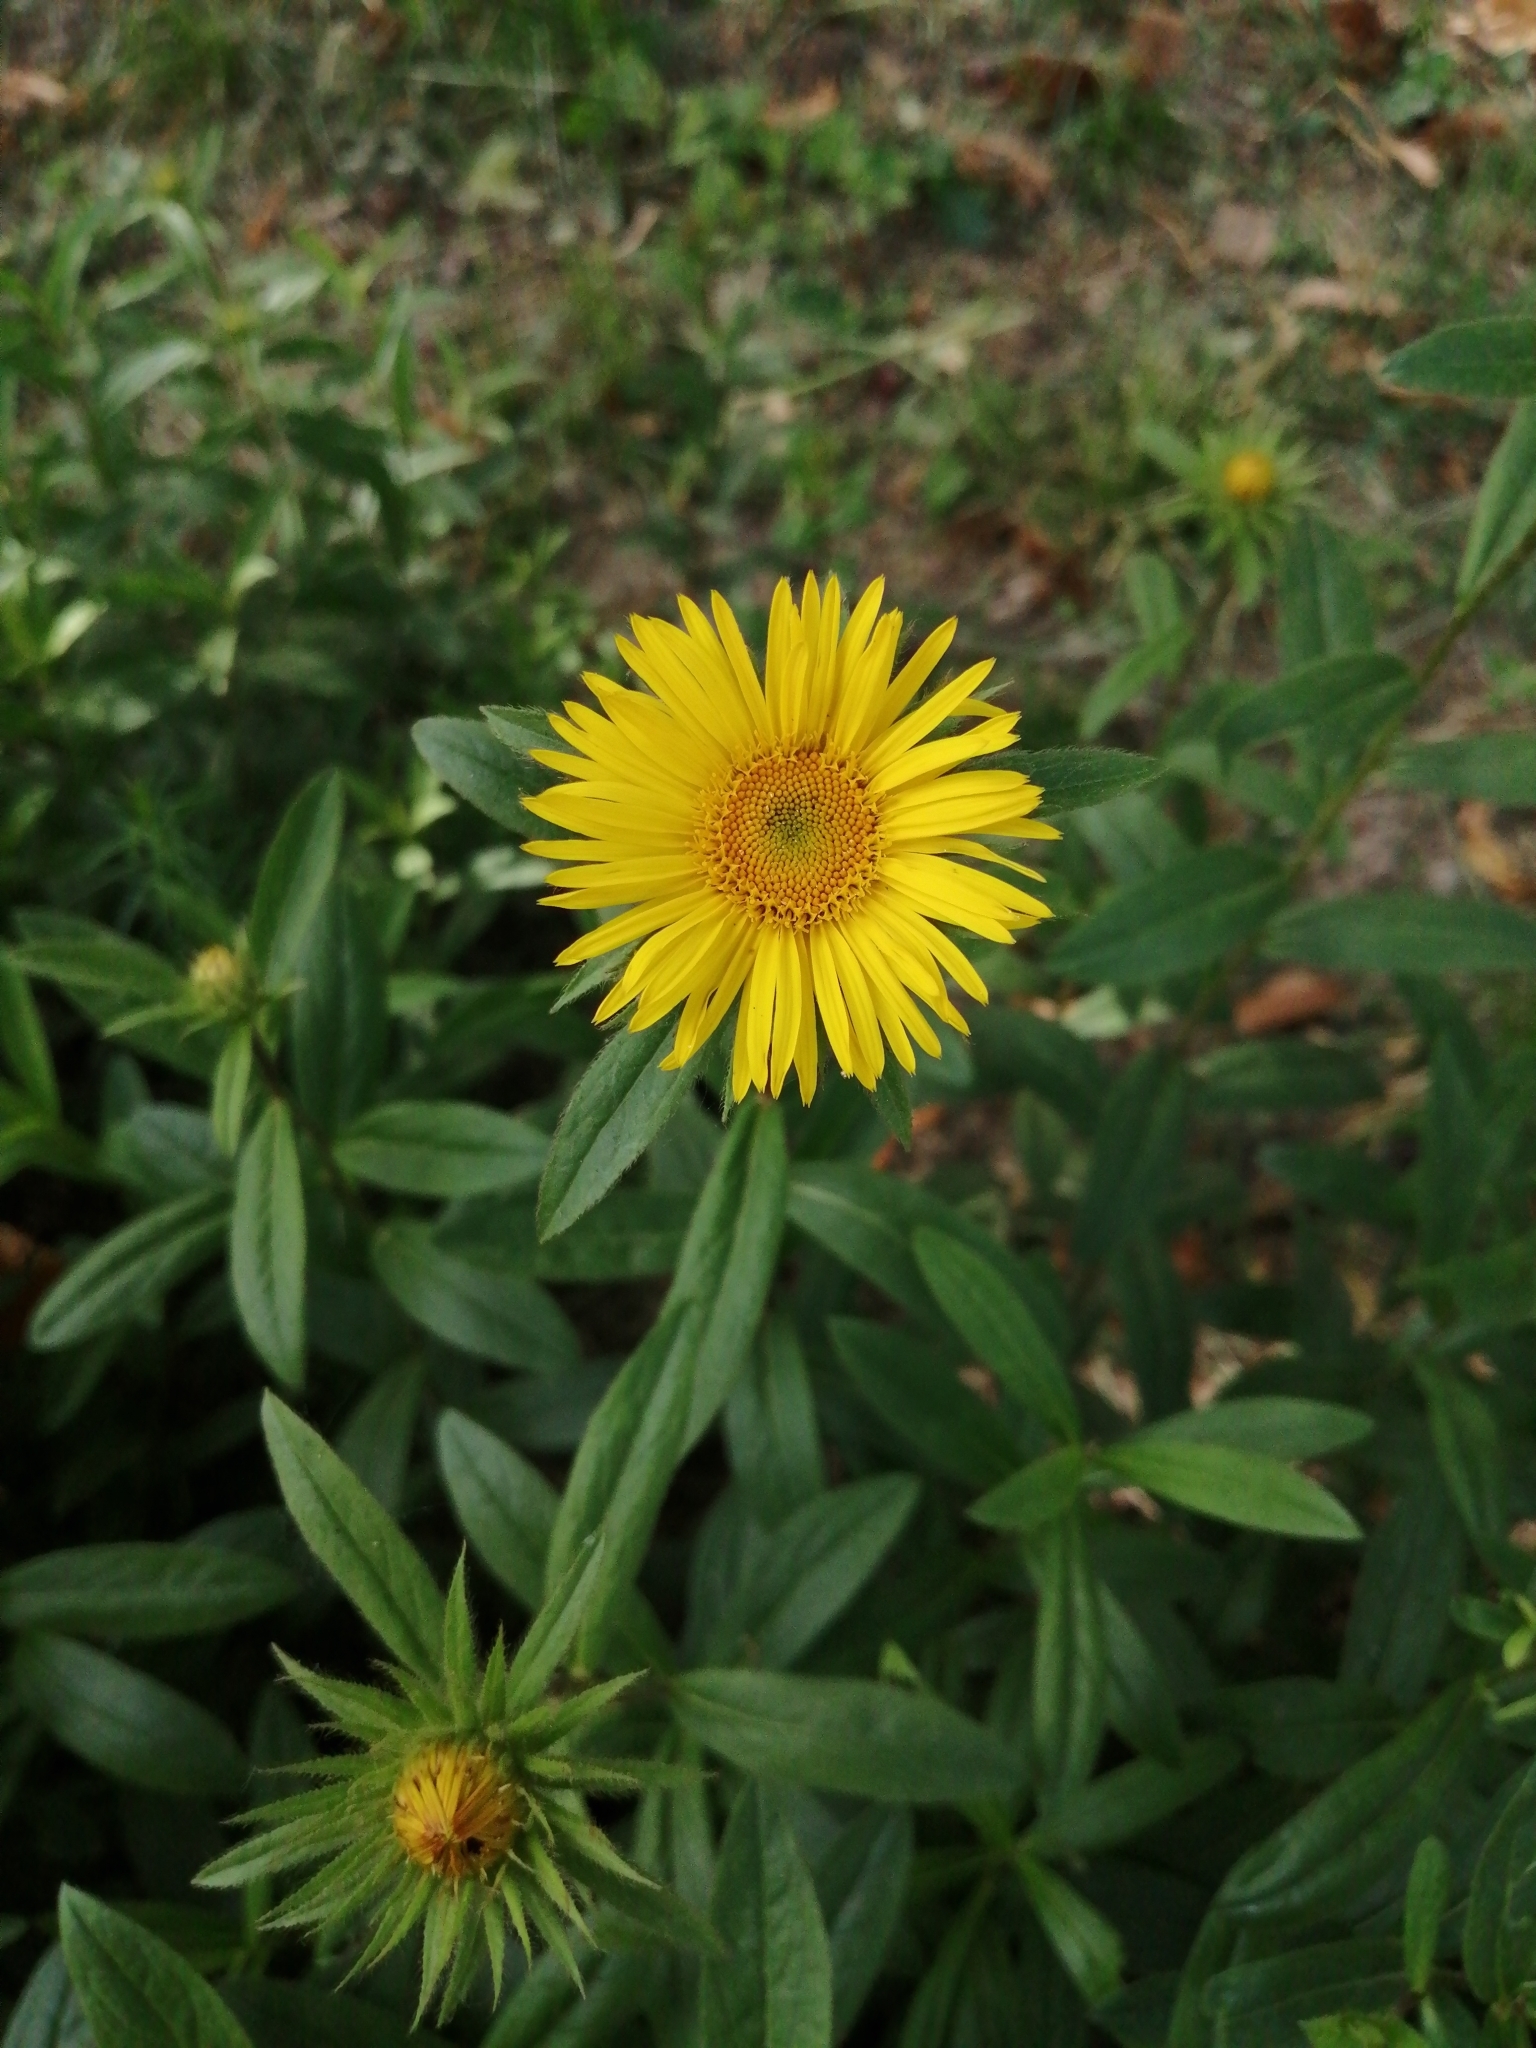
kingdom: Plantae
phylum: Tracheophyta
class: Magnoliopsida
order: Asterales
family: Asteraceae
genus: Pentanema
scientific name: Pentanema hirtum
